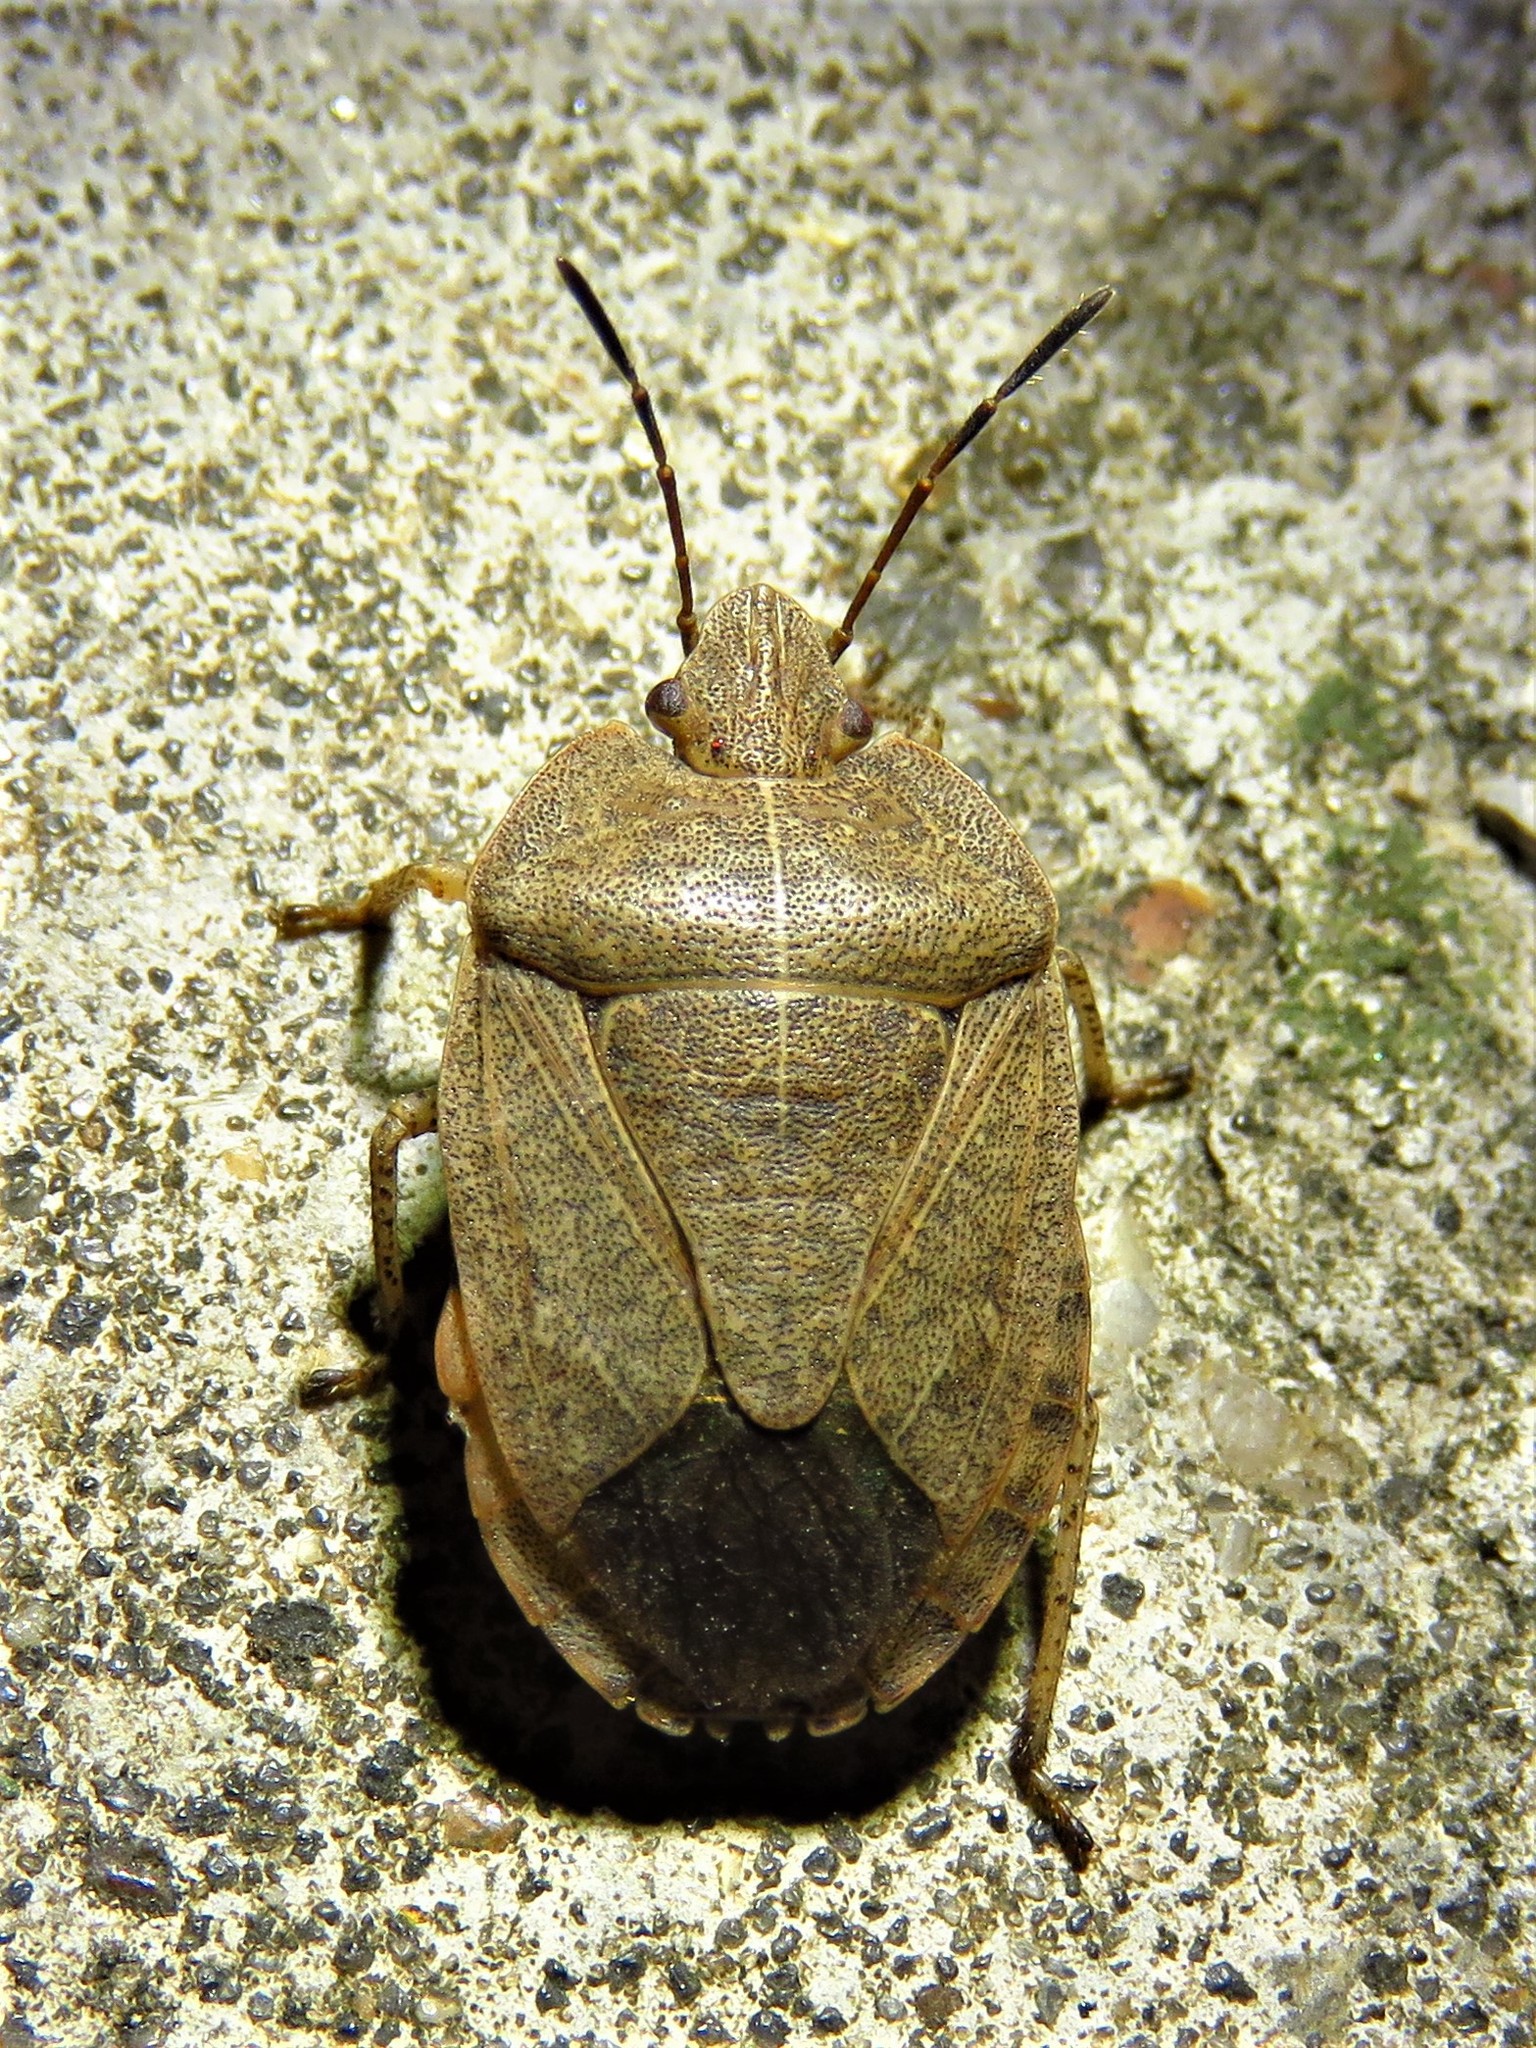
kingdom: Animalia
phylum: Arthropoda
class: Insecta
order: Hemiptera
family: Pentatomidae
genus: Menecles
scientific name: Menecles insertus
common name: Elf shoe stink bug
